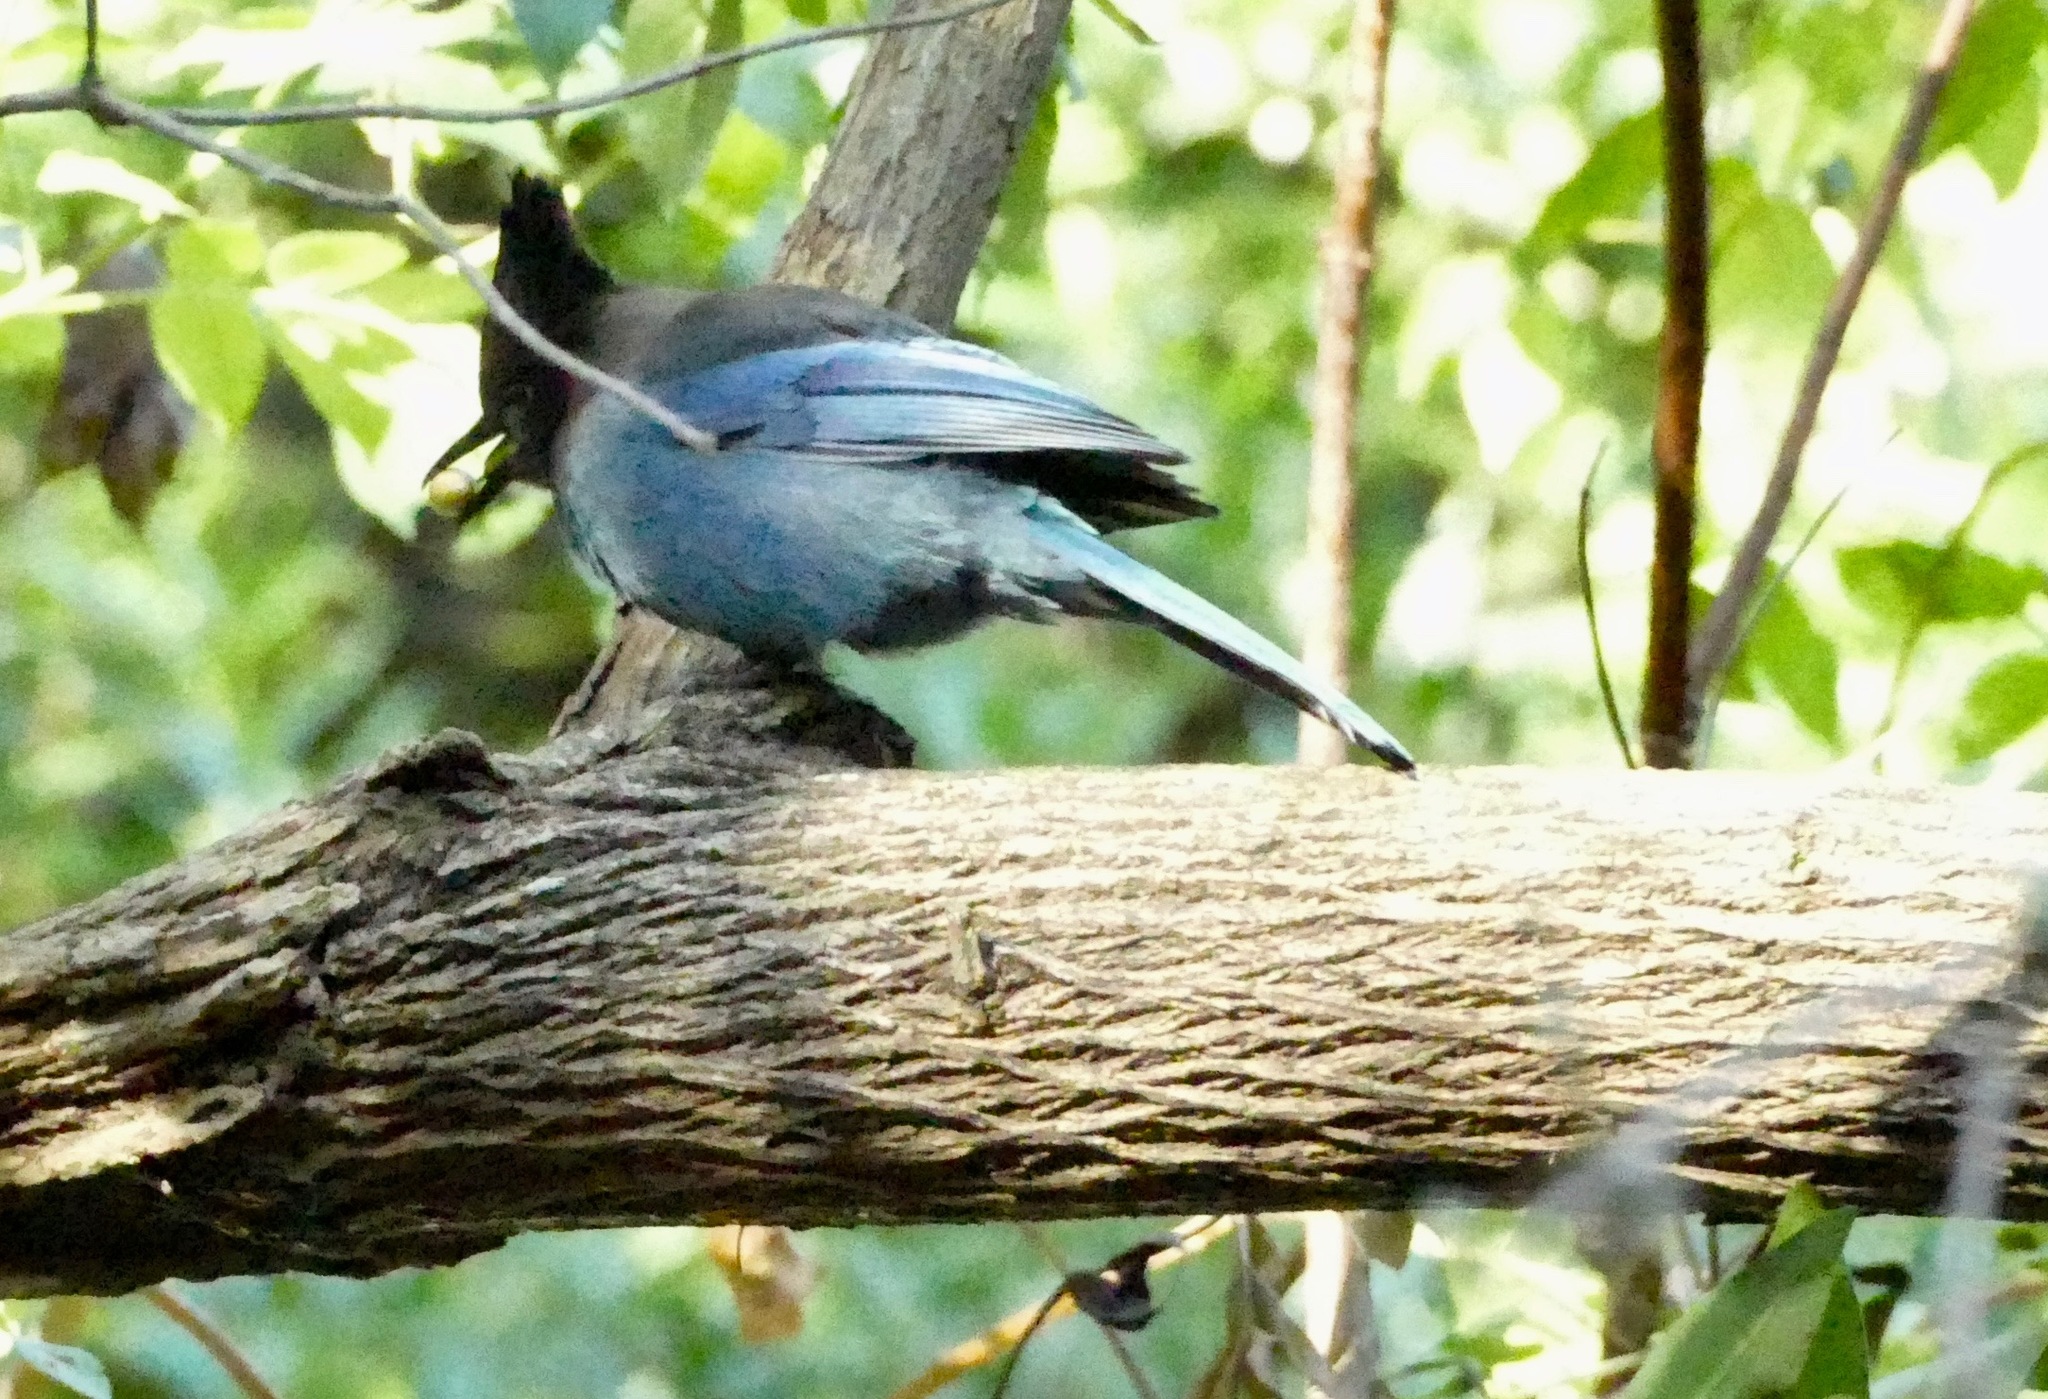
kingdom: Animalia
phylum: Chordata
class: Aves
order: Passeriformes
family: Corvidae
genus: Cyanocitta
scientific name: Cyanocitta stelleri
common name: Steller's jay
